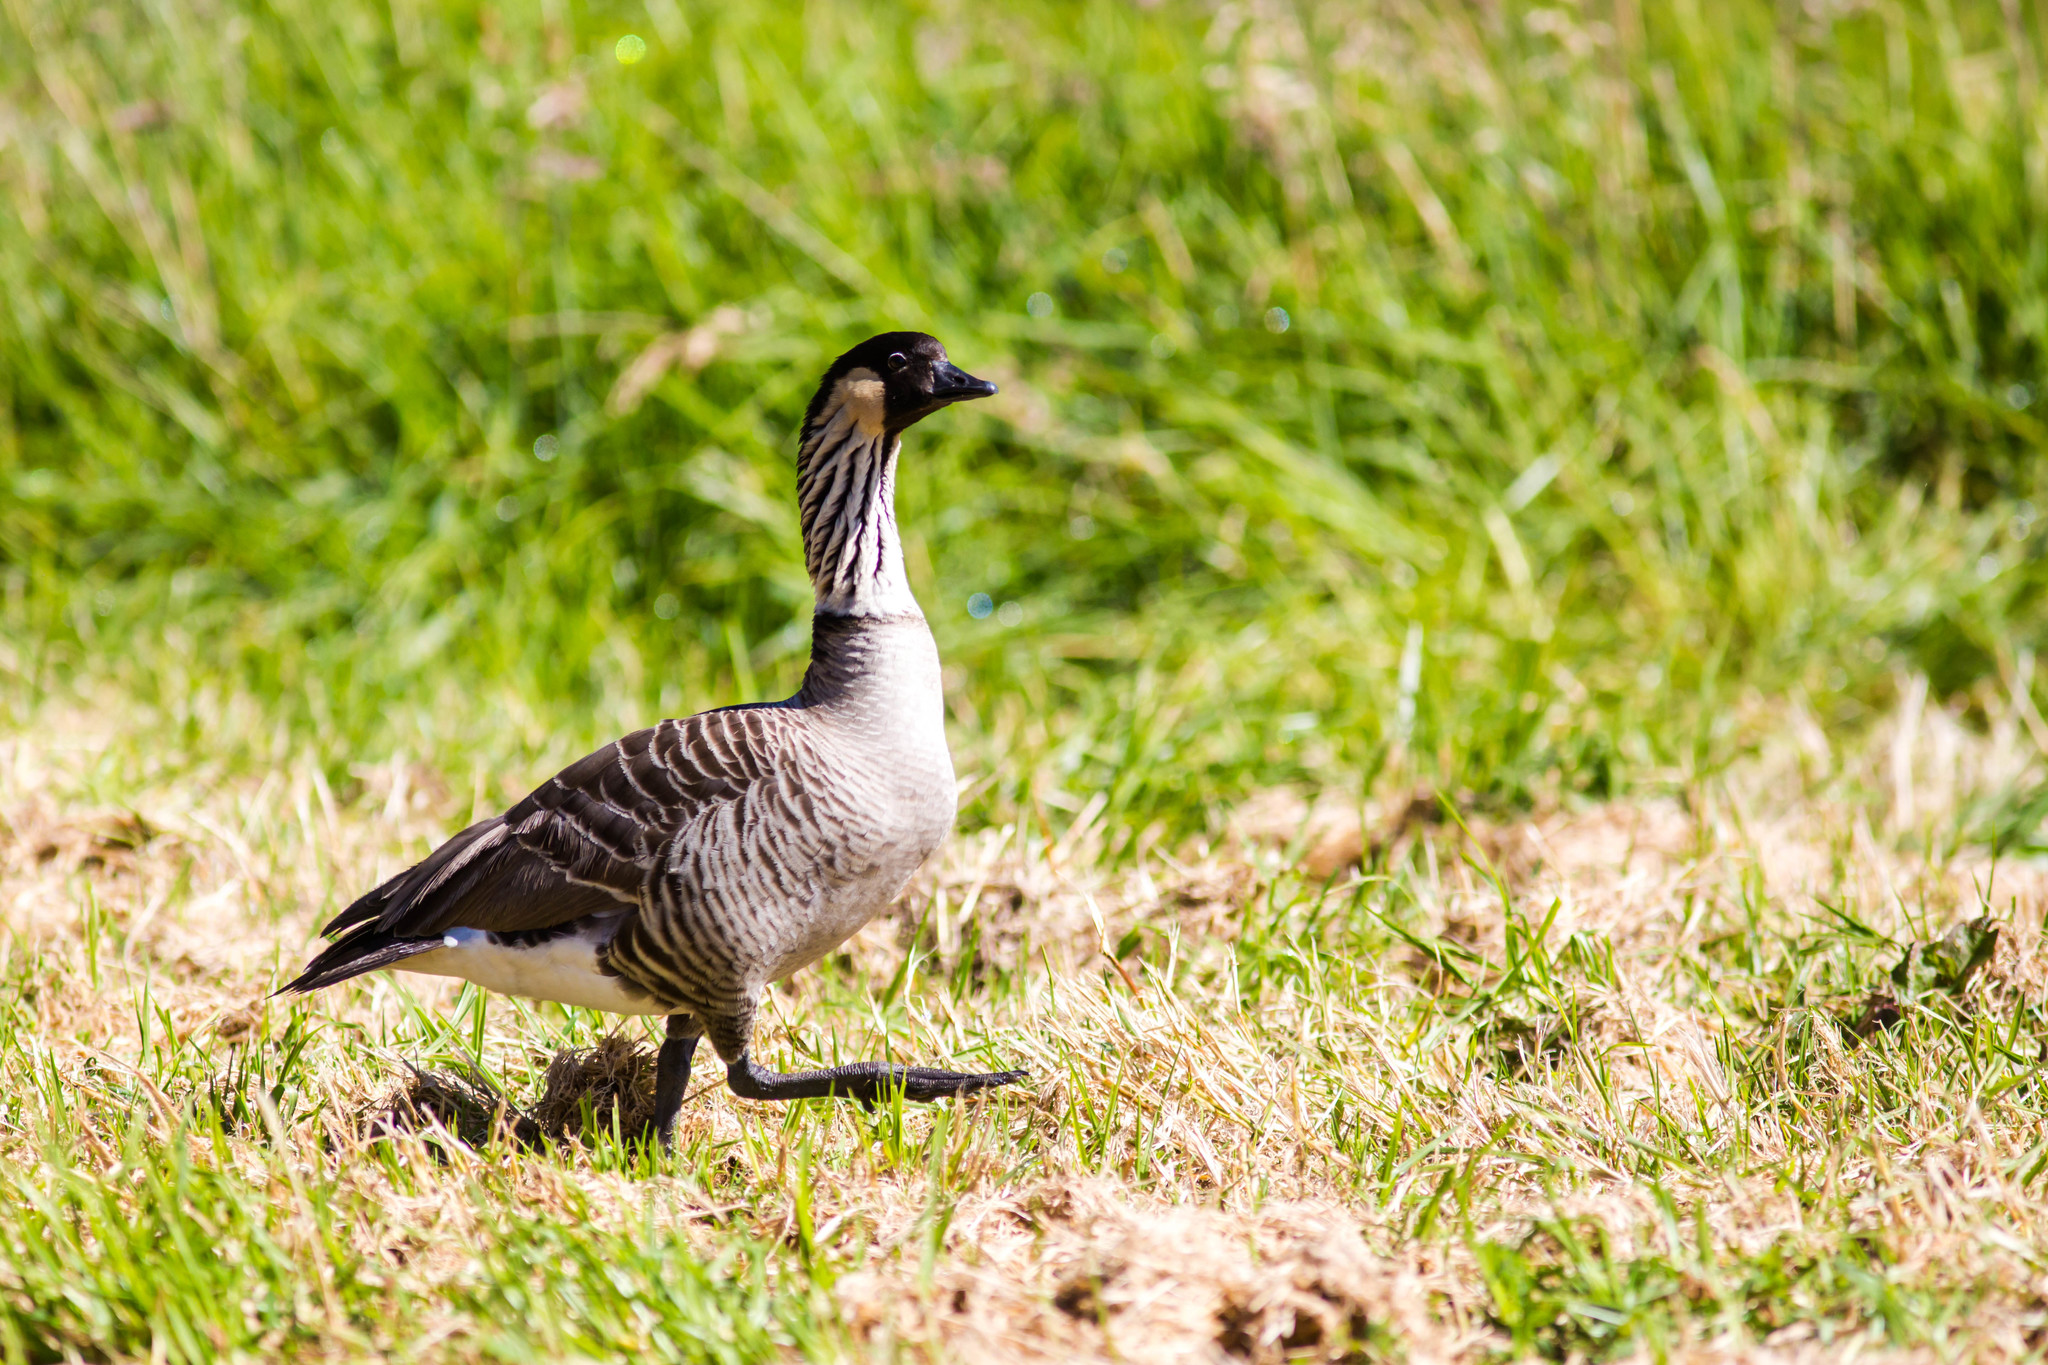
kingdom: Animalia
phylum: Chordata
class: Aves
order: Anseriformes
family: Anatidae
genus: Branta
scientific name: Branta sandvicensis
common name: Nene
